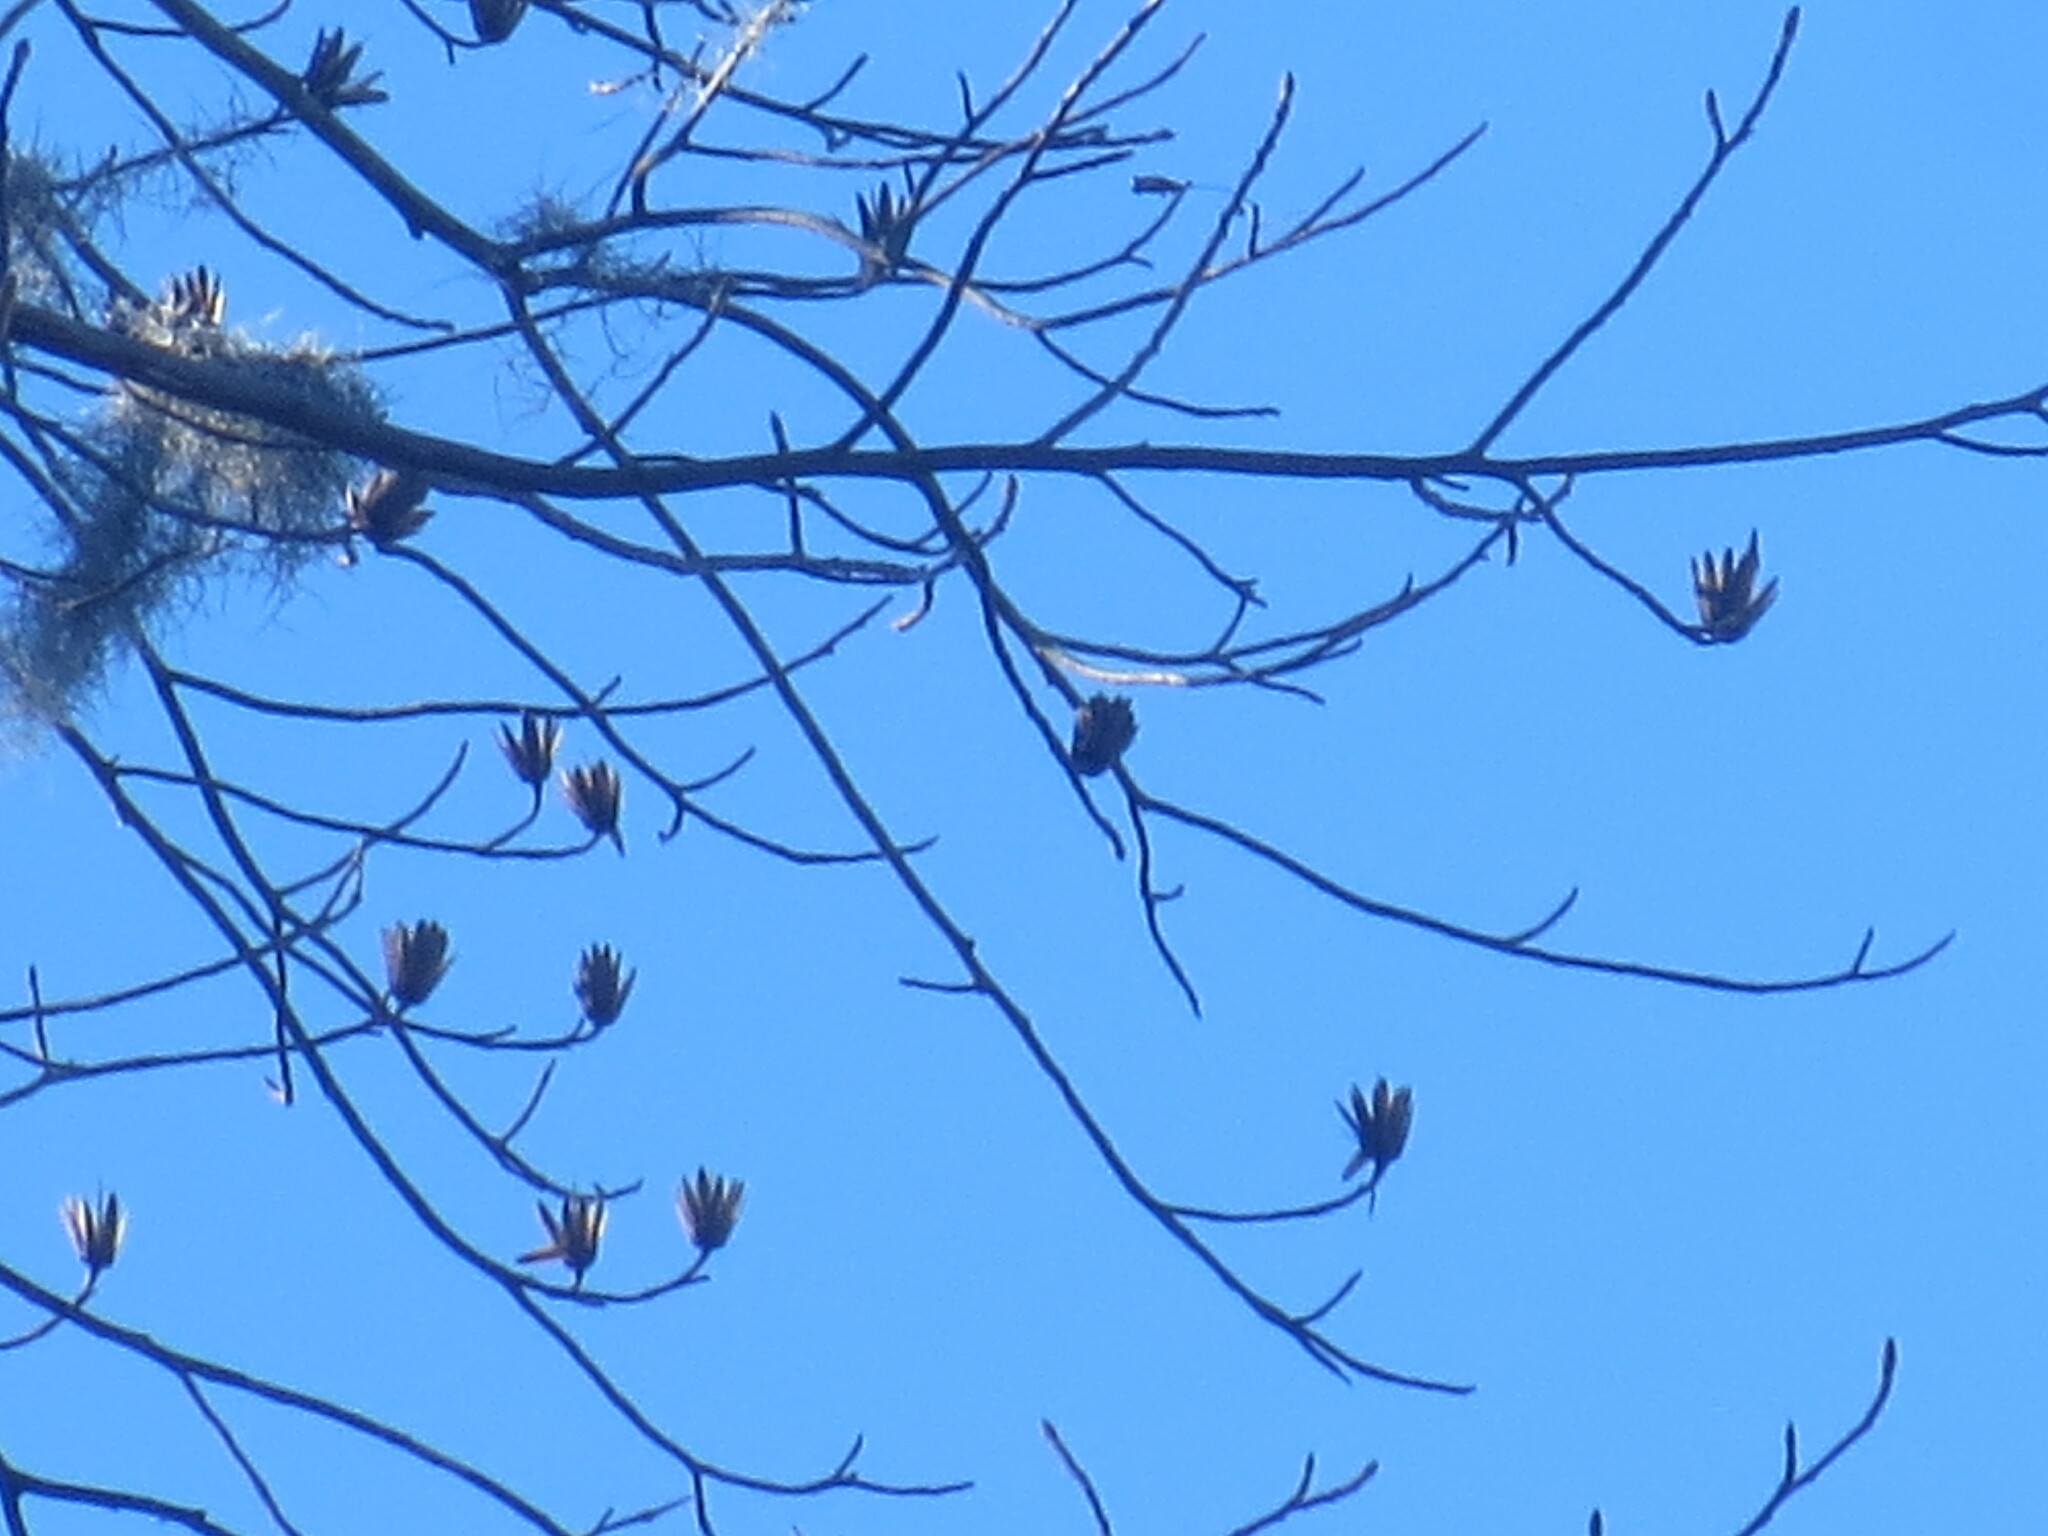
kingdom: Plantae
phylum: Tracheophyta
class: Magnoliopsida
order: Magnoliales
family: Magnoliaceae
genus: Liriodendron
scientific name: Liriodendron tulipifera
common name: Tulip tree
